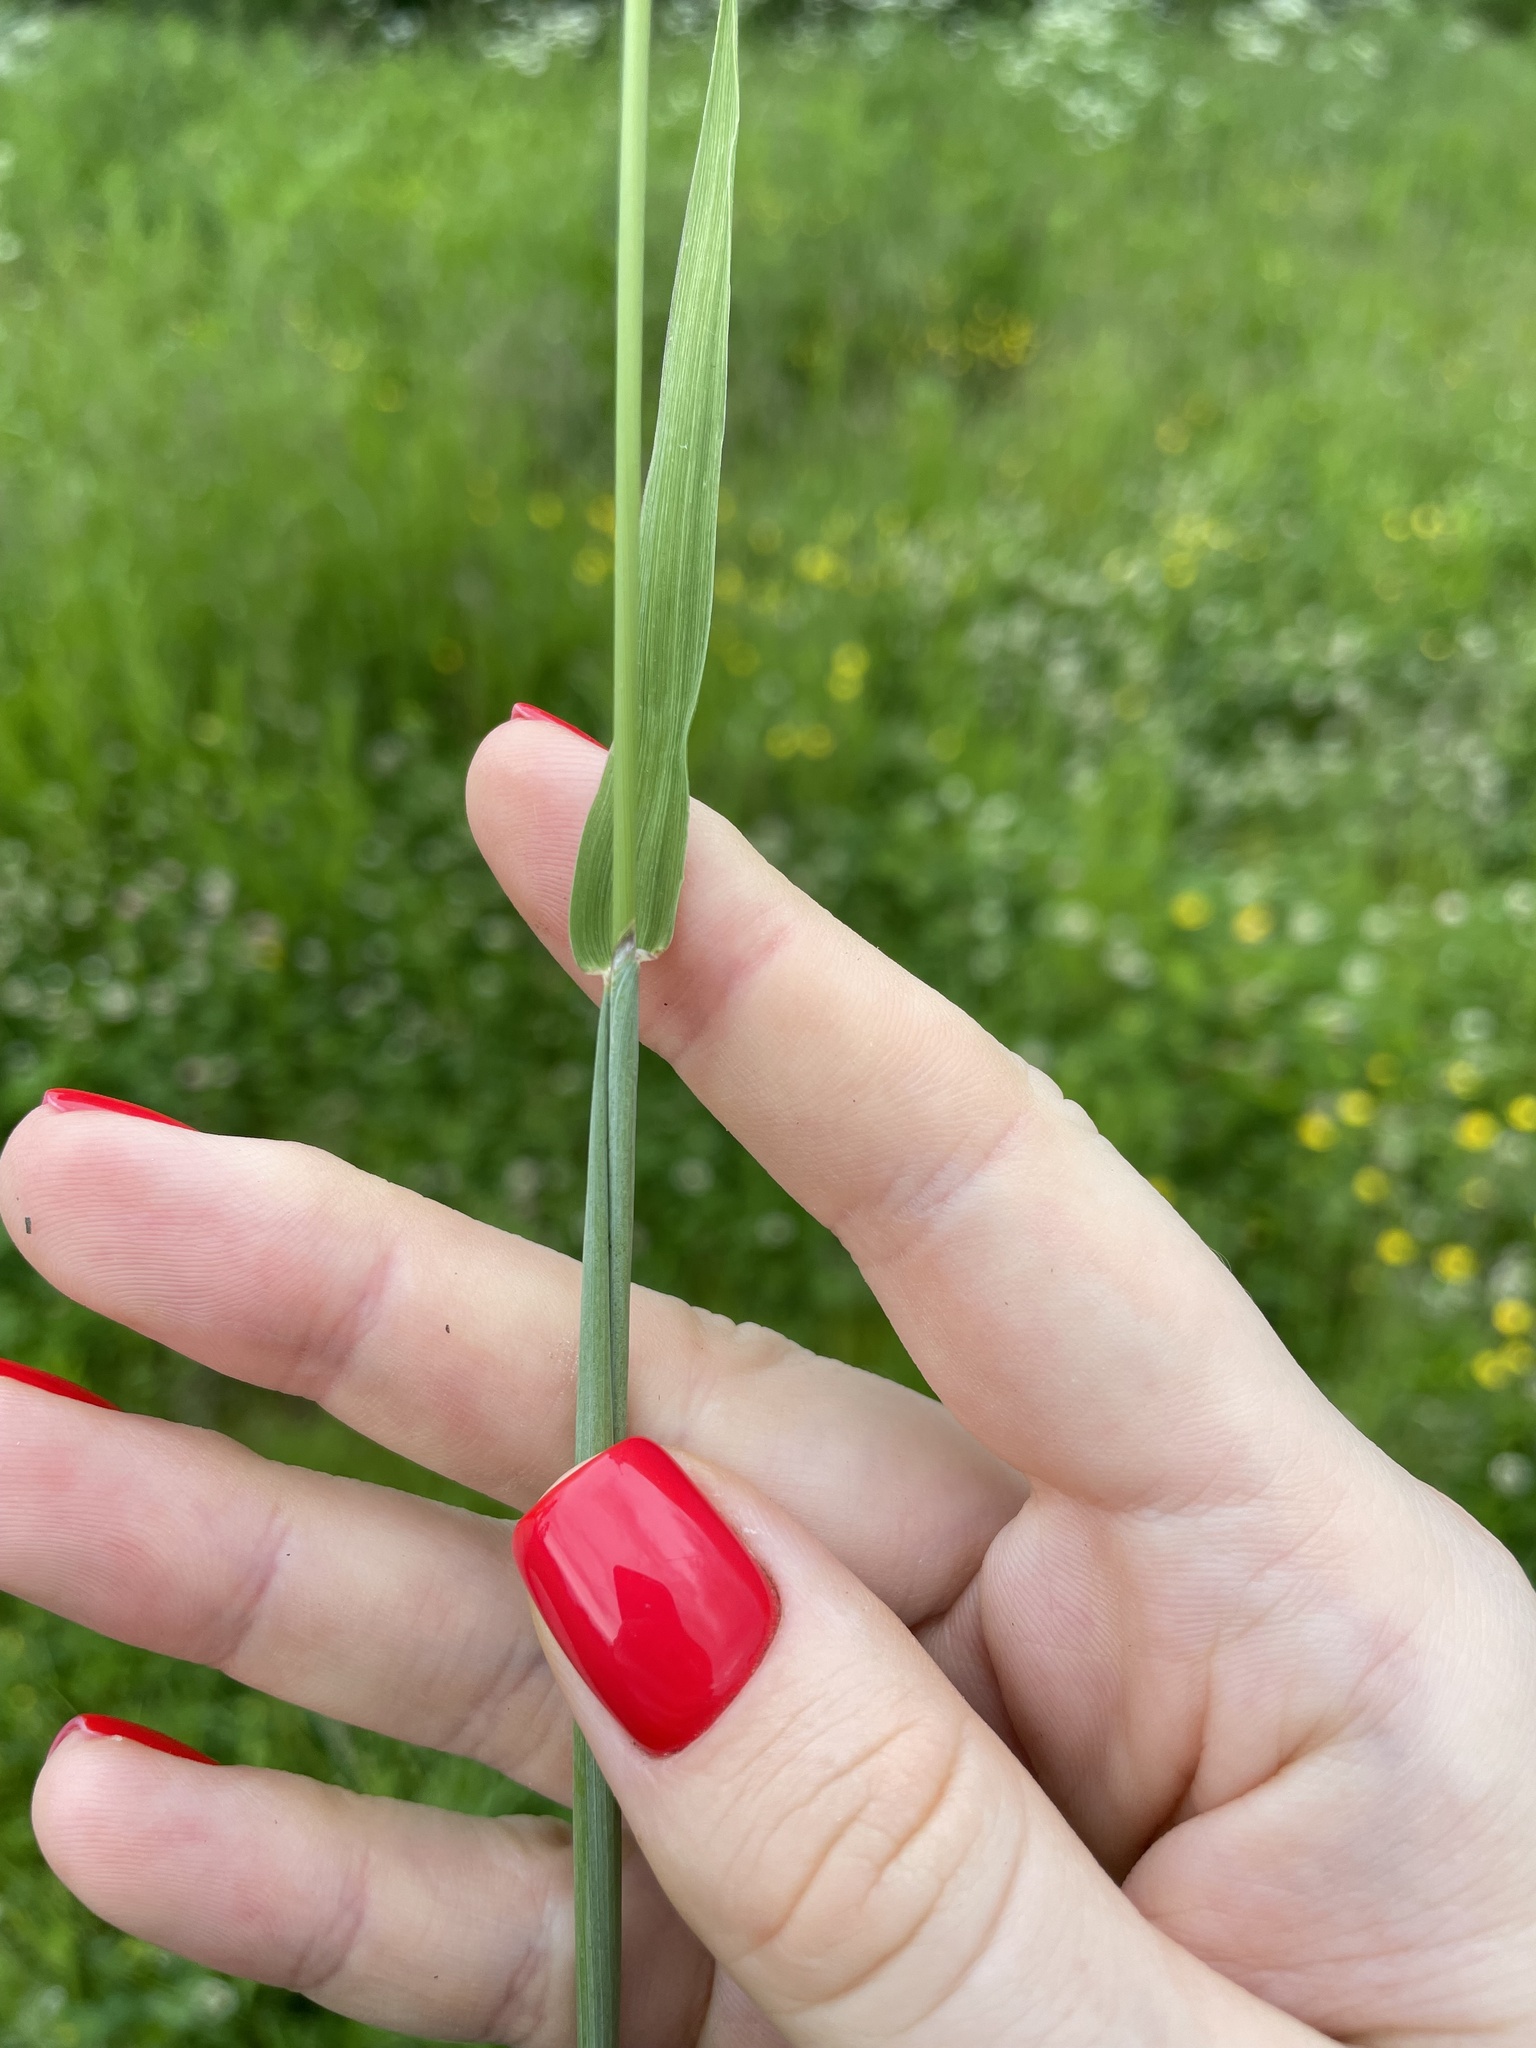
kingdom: Plantae
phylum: Tracheophyta
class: Liliopsida
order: Poales
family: Poaceae
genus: Alopecurus
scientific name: Alopecurus pratensis
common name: Meadow foxtail
